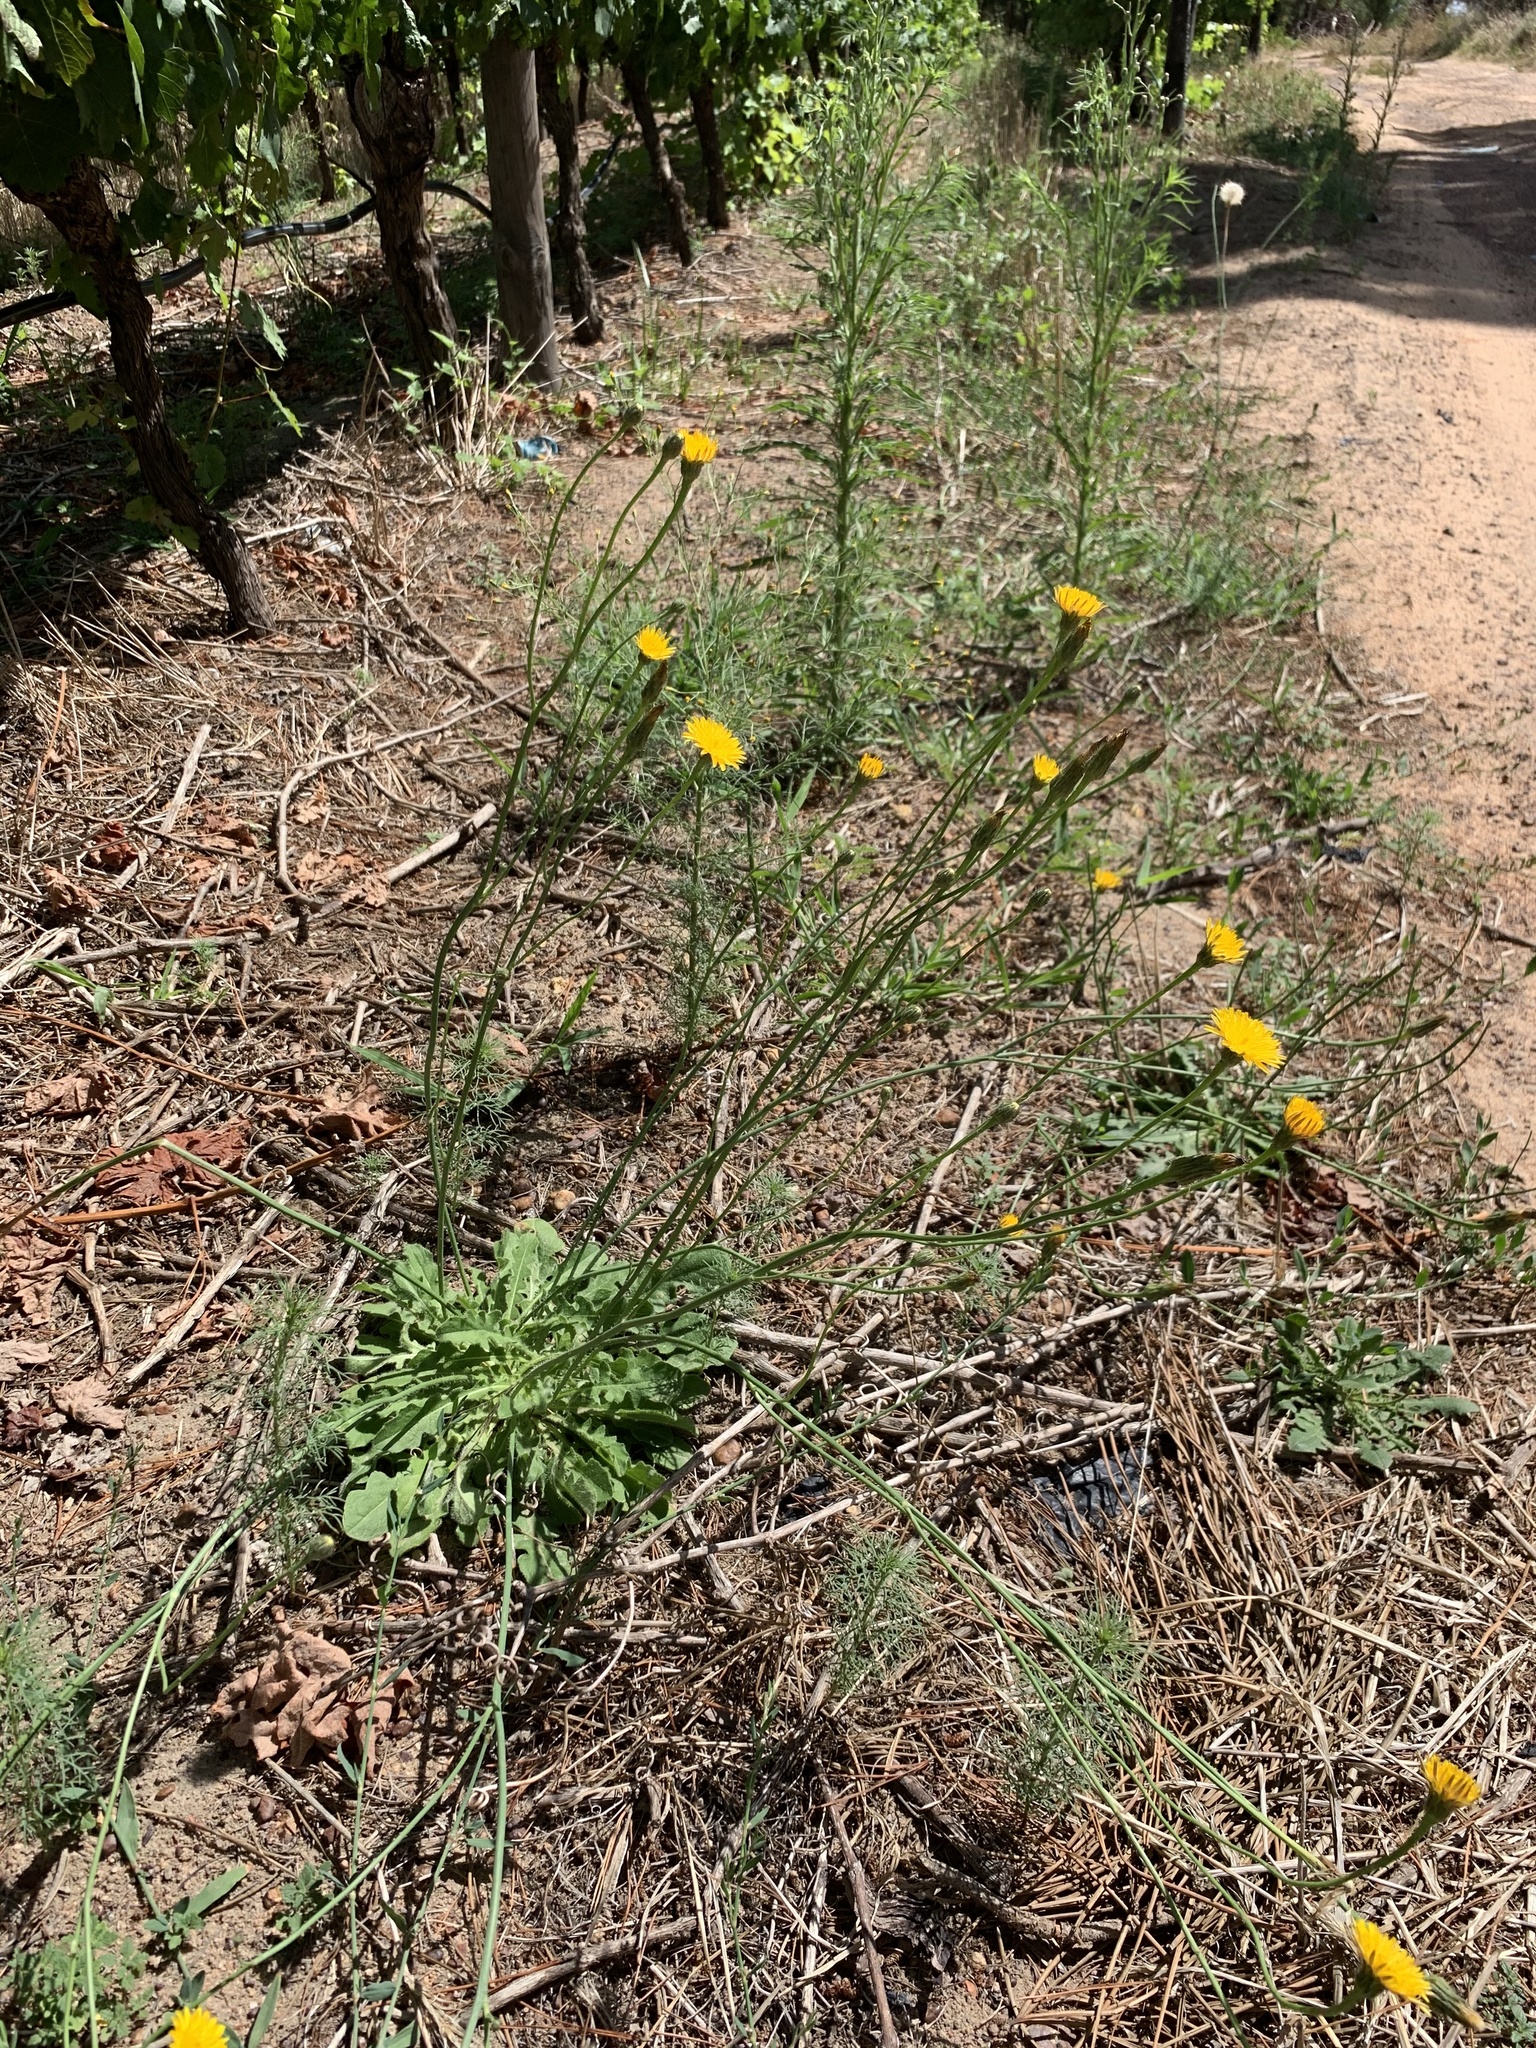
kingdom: Plantae
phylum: Tracheophyta
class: Magnoliopsida
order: Asterales
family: Asteraceae
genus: Hypochaeris
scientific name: Hypochaeris radicata
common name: Flatweed
